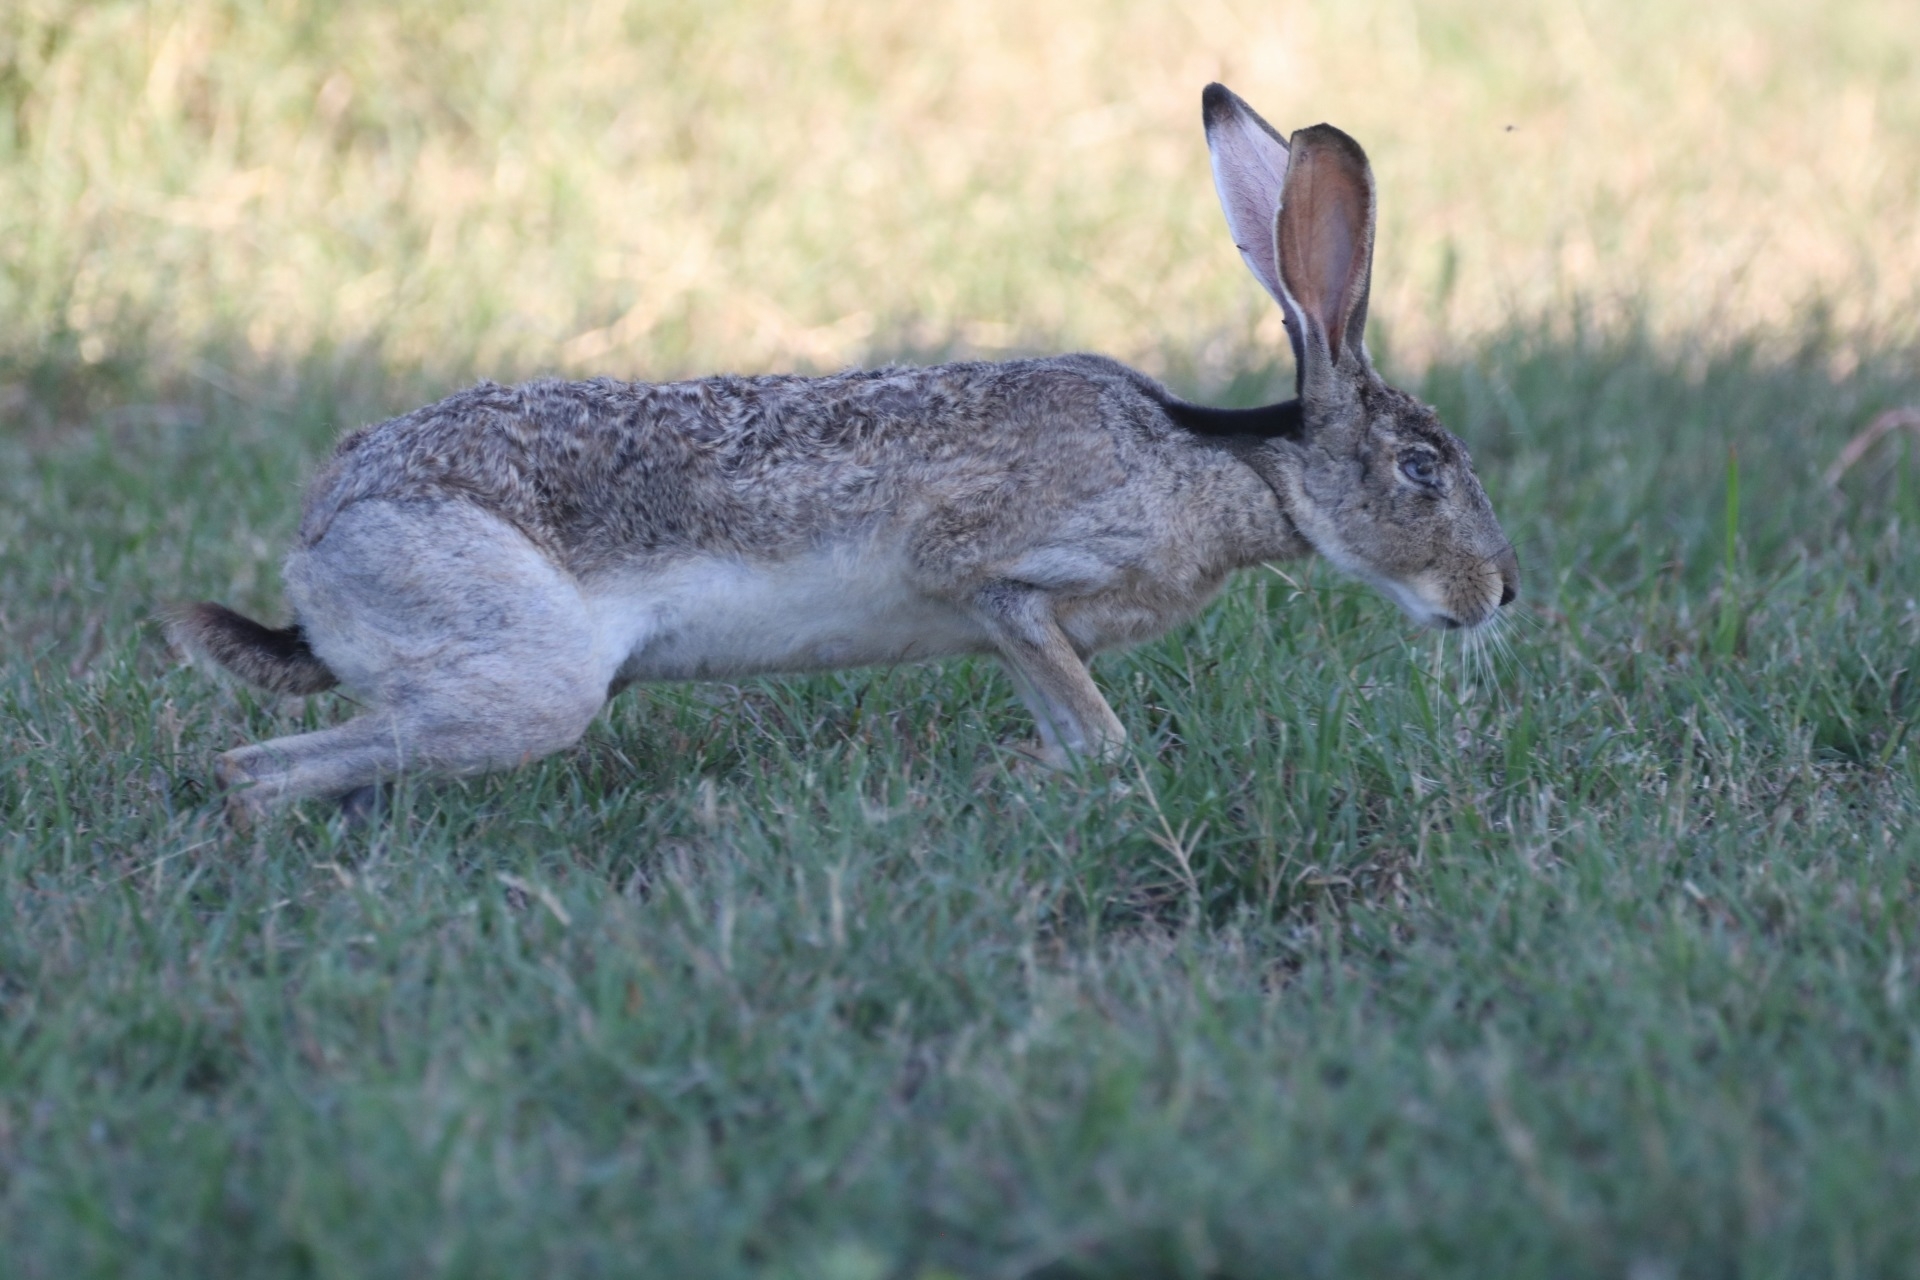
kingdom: Animalia
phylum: Chordata
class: Mammalia
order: Lagomorpha
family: Leporidae
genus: Lepus
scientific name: Lepus californicus
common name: Black-tailed jackrabbit
